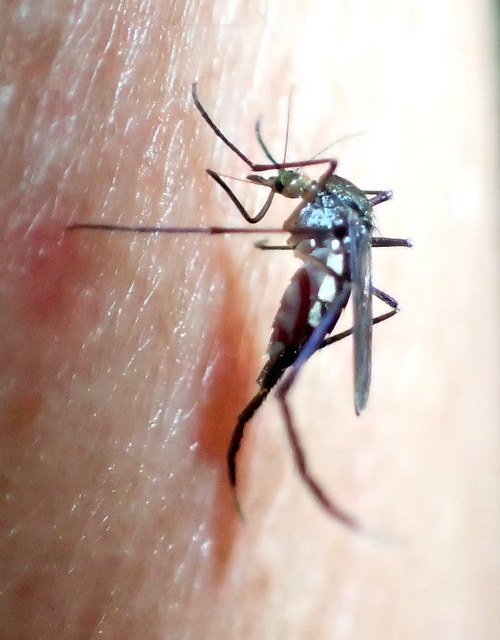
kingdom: Animalia
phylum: Arthropoda
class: Insecta
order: Diptera
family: Culicidae
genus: Psorophora
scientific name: Psorophora ferox
